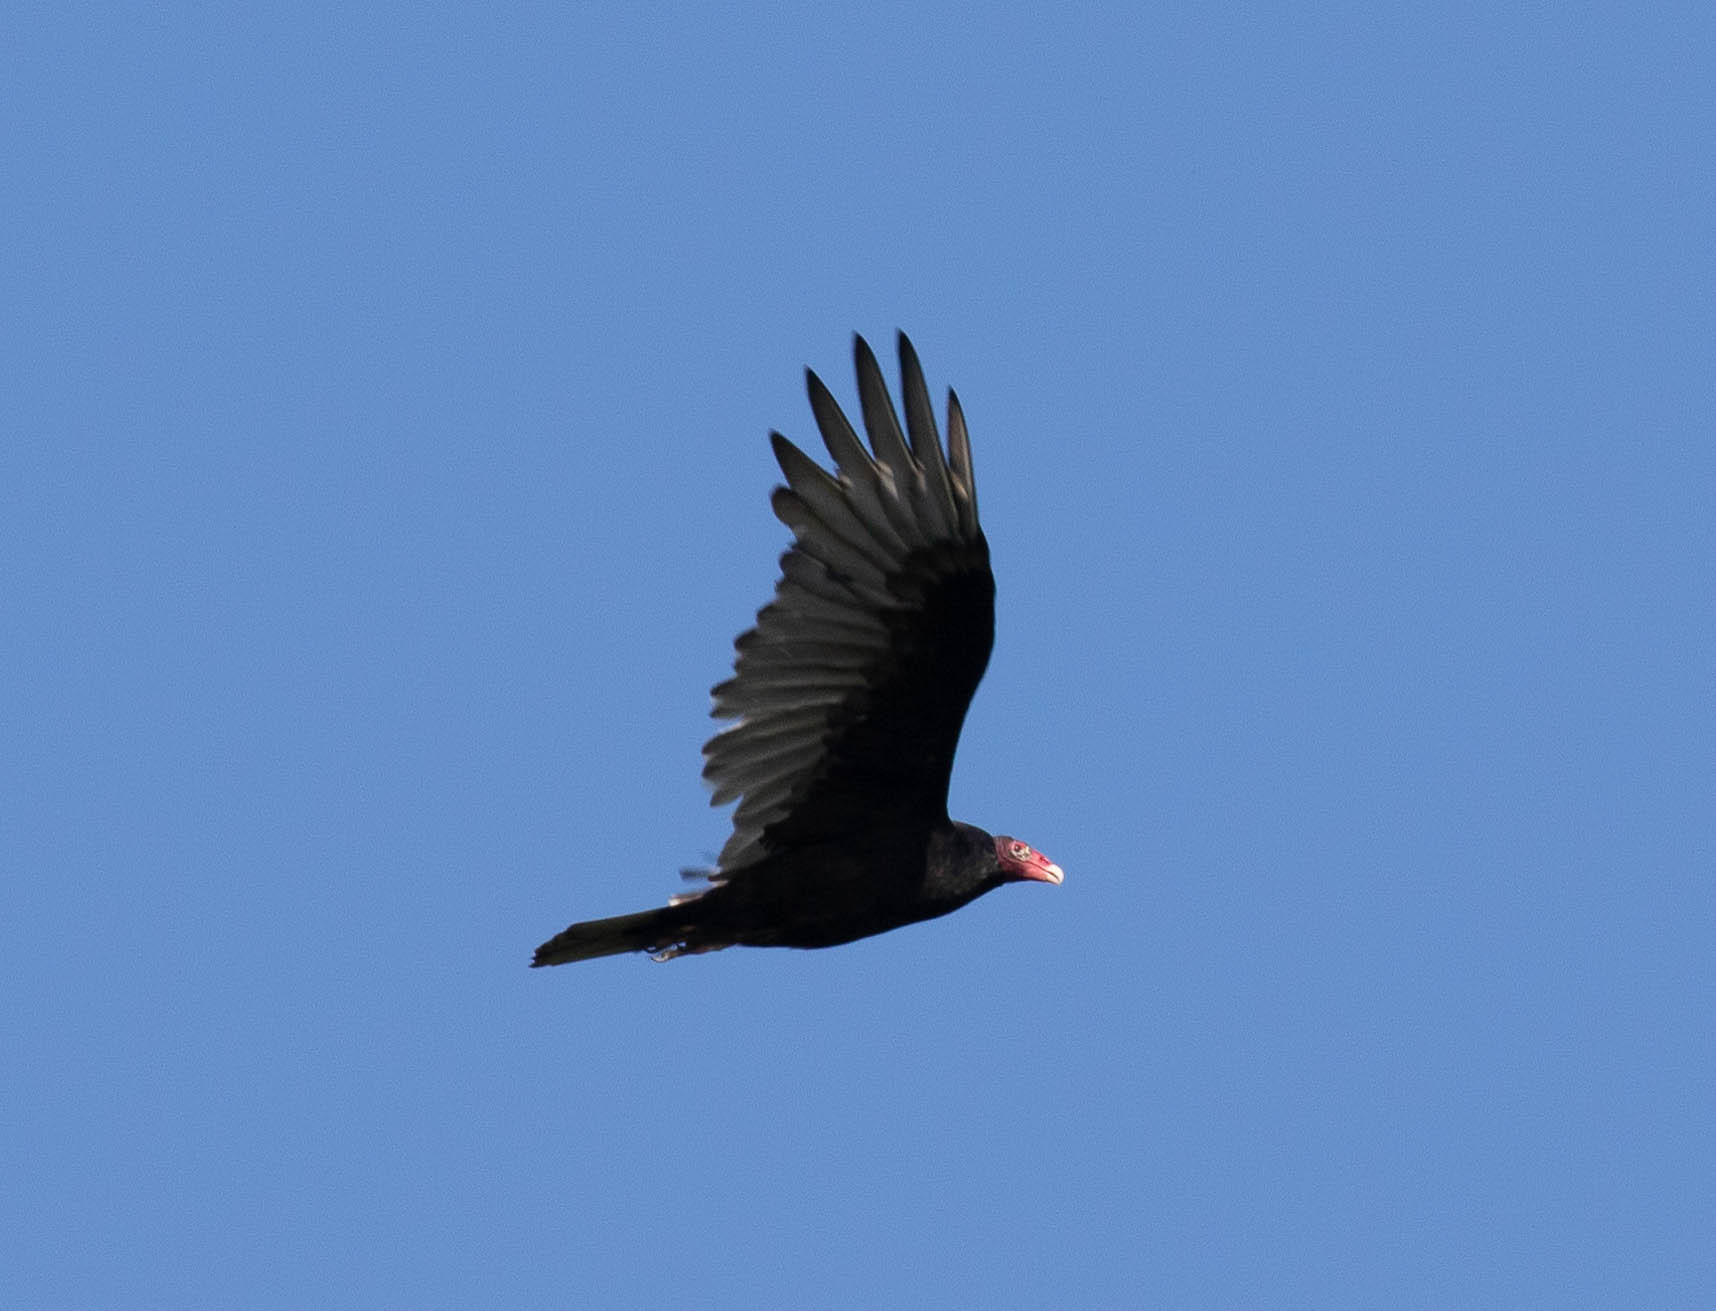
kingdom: Animalia
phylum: Chordata
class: Aves
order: Accipitriformes
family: Cathartidae
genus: Cathartes
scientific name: Cathartes aura
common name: Turkey vulture
